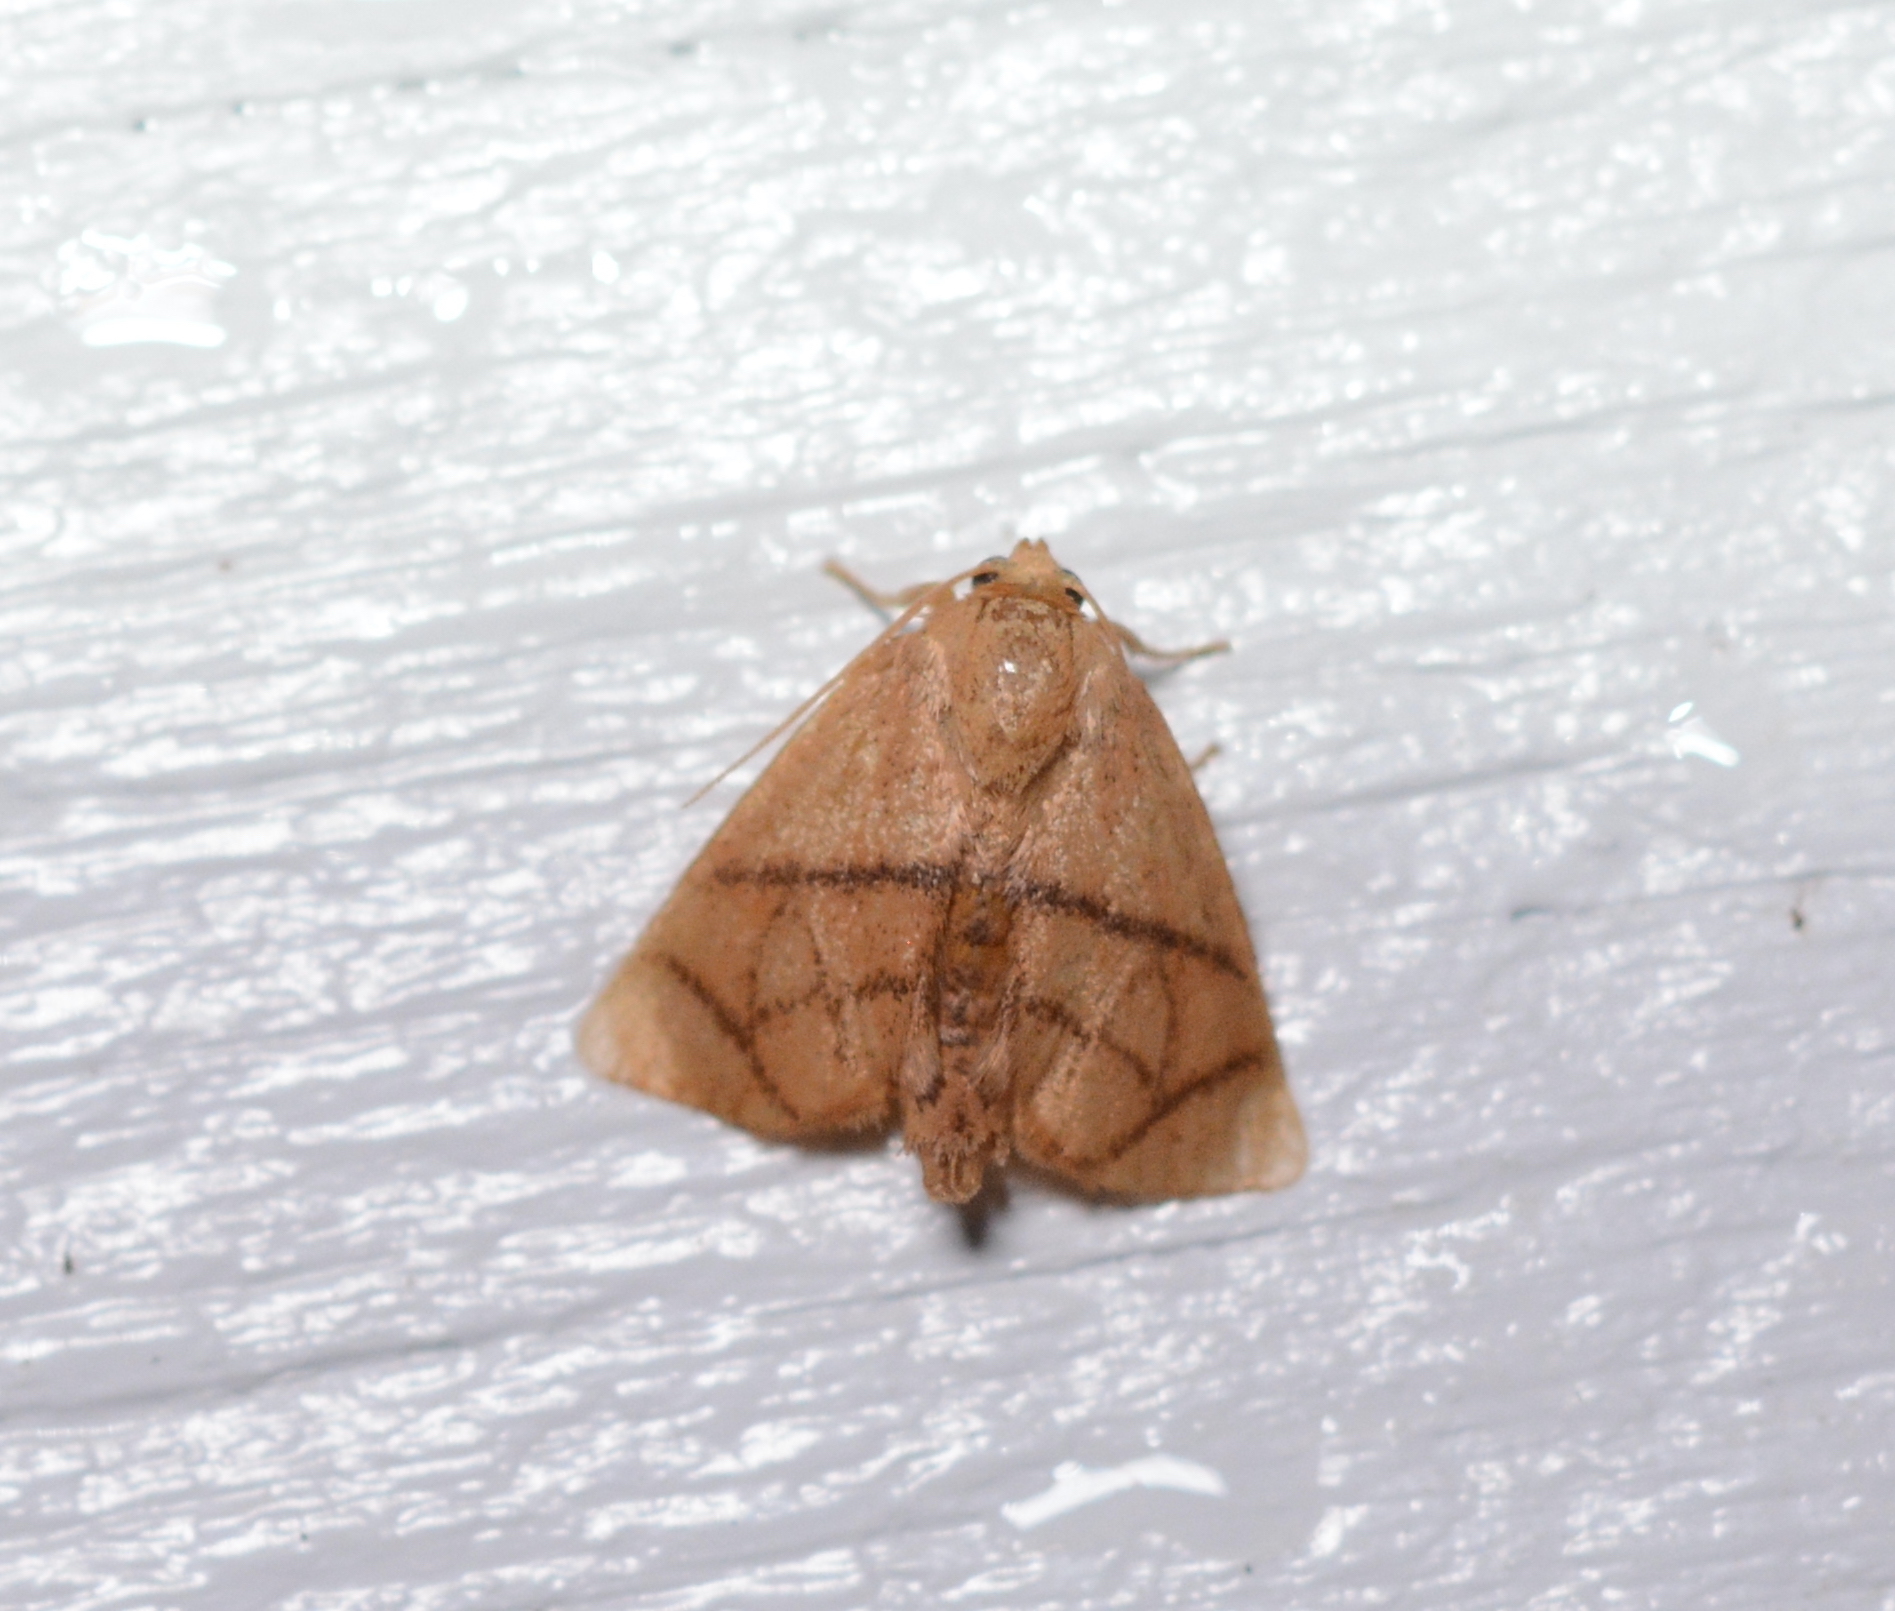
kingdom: Animalia
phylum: Arthropoda
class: Insecta
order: Lepidoptera
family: Limacodidae
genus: Apoda
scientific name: Apoda y-inversa
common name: Yellow-collared slug moth
